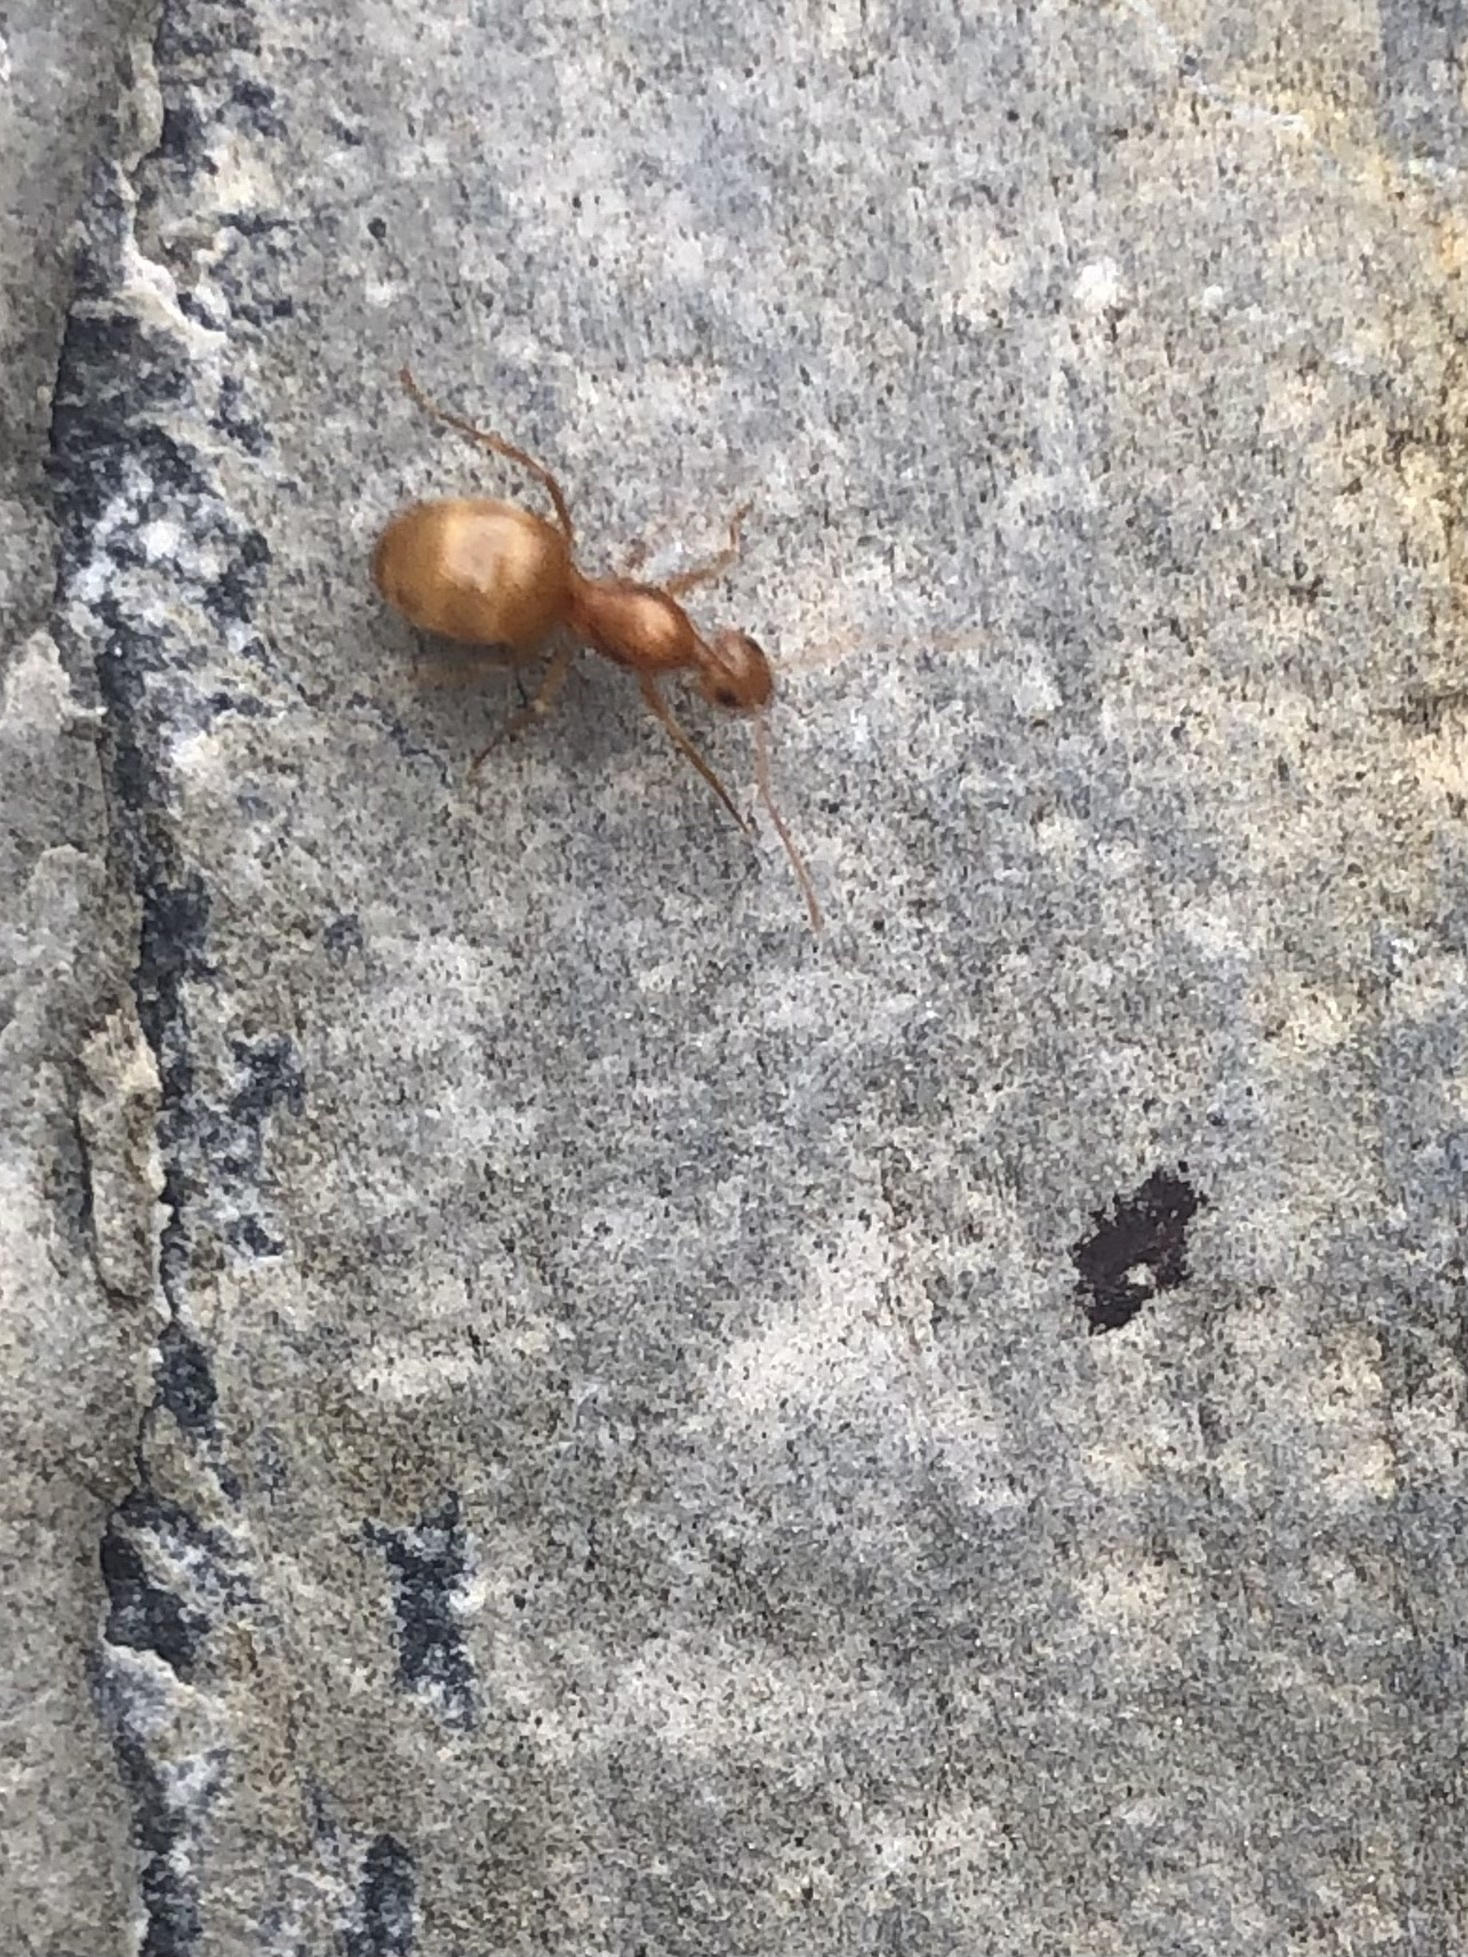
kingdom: Animalia
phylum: Arthropoda
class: Insecta
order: Hymenoptera
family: Formicidae
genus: Prenolepis
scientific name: Prenolepis imparis
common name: Small honey ant
